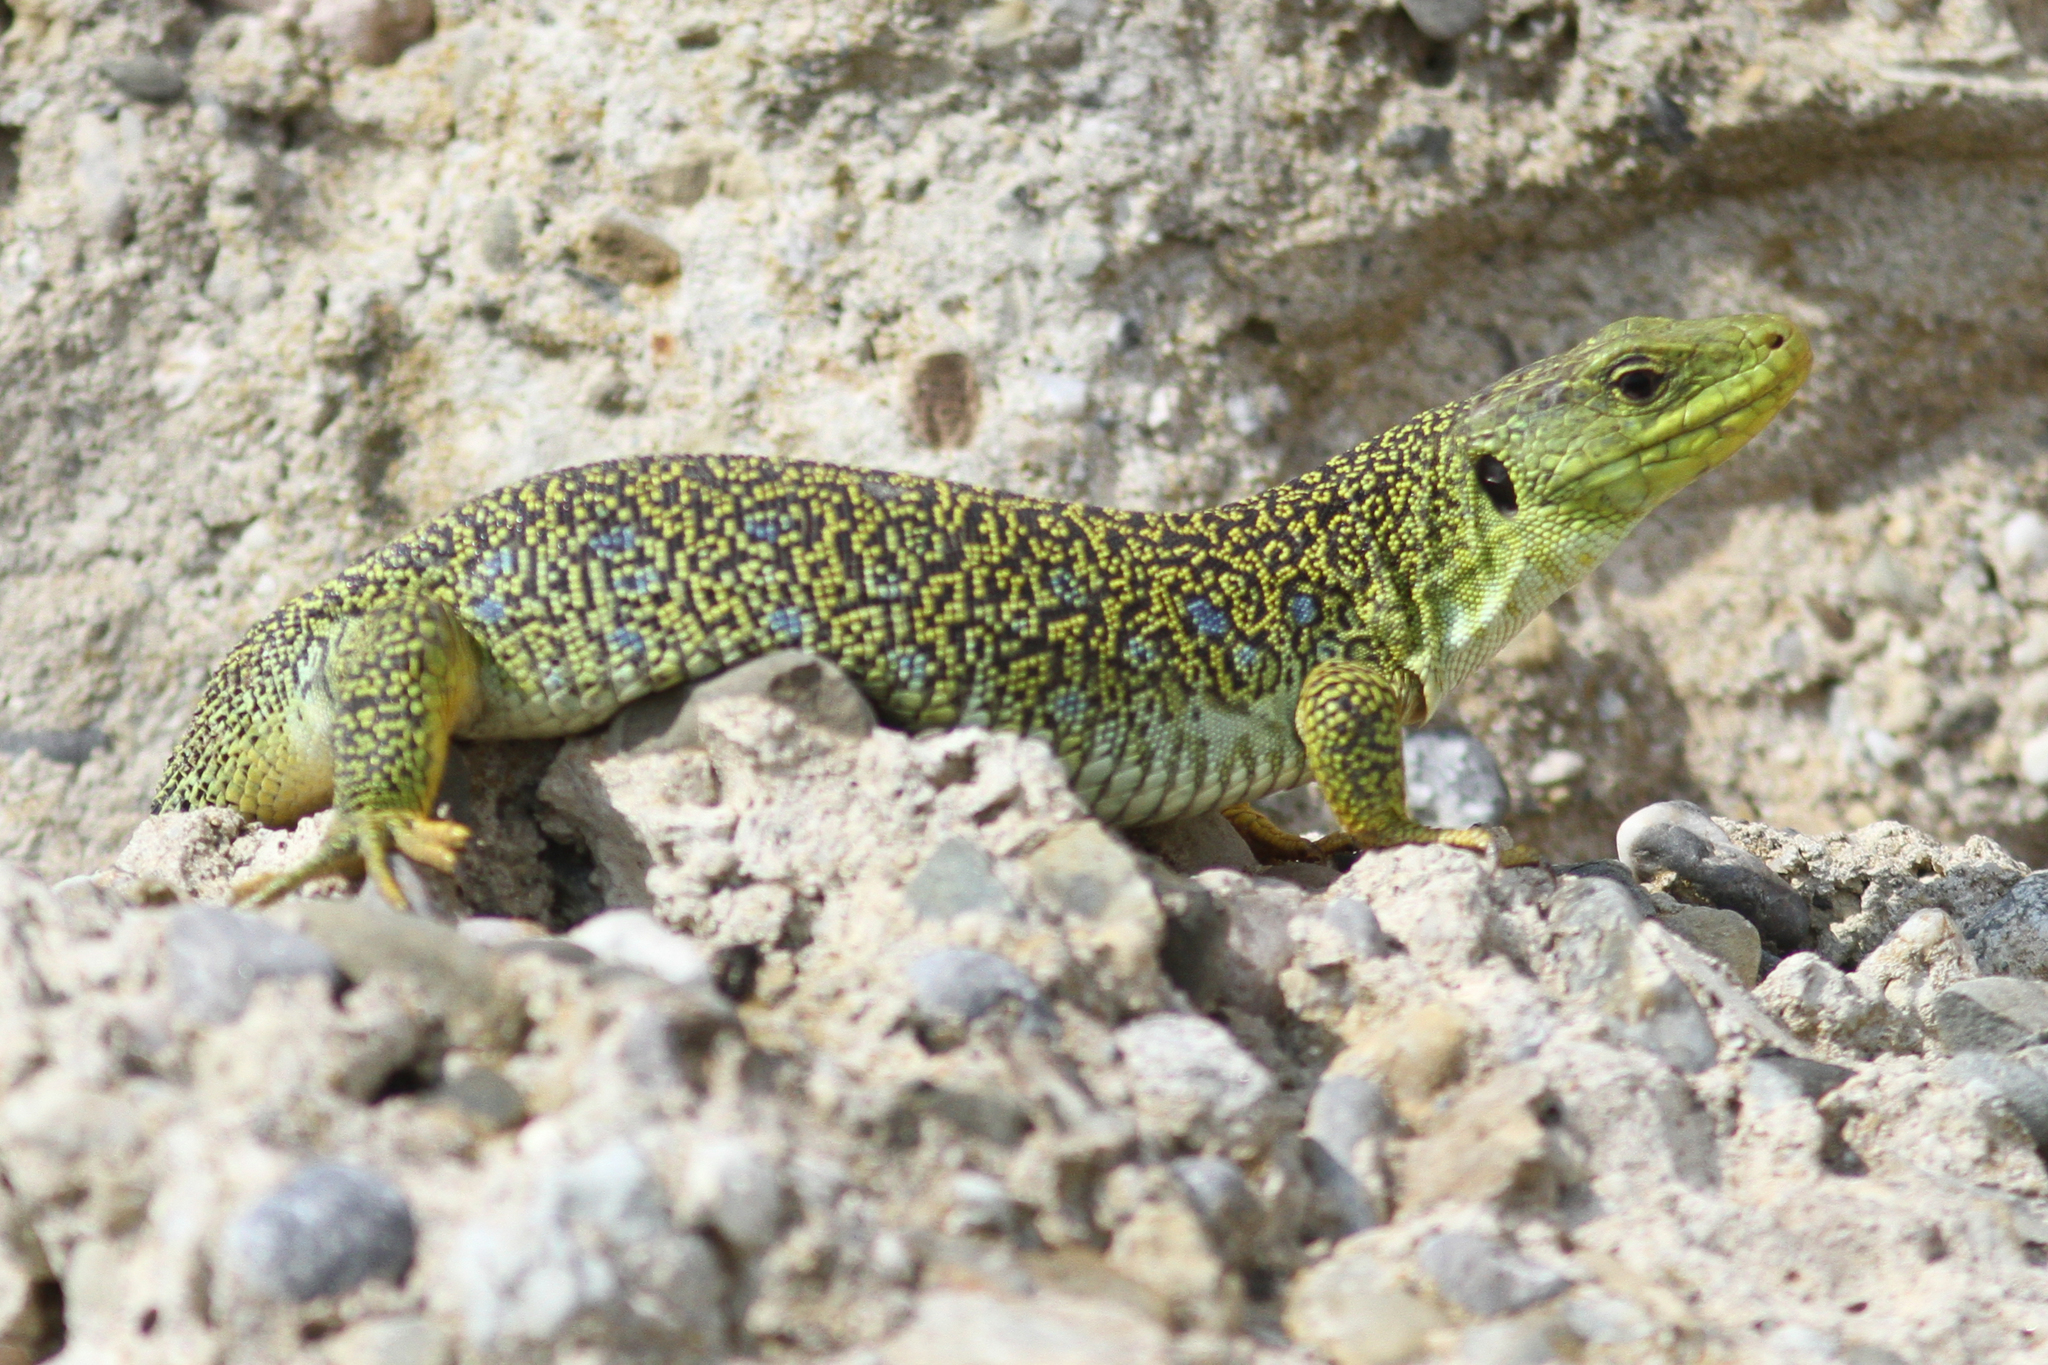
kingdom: Animalia
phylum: Chordata
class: Squamata
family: Lacertidae
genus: Timon
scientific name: Timon lepidus
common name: Ocellated lizard
